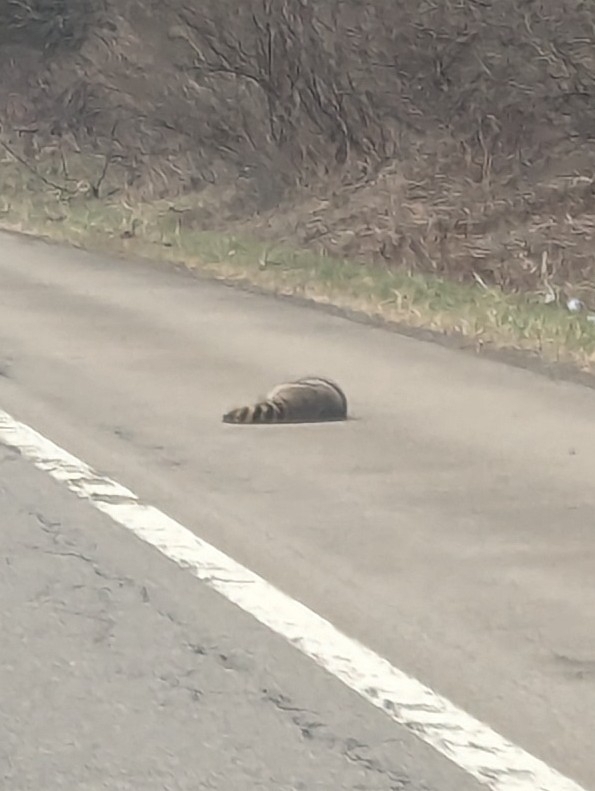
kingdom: Animalia
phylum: Chordata
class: Mammalia
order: Carnivora
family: Procyonidae
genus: Procyon
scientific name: Procyon lotor
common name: Raccoon
